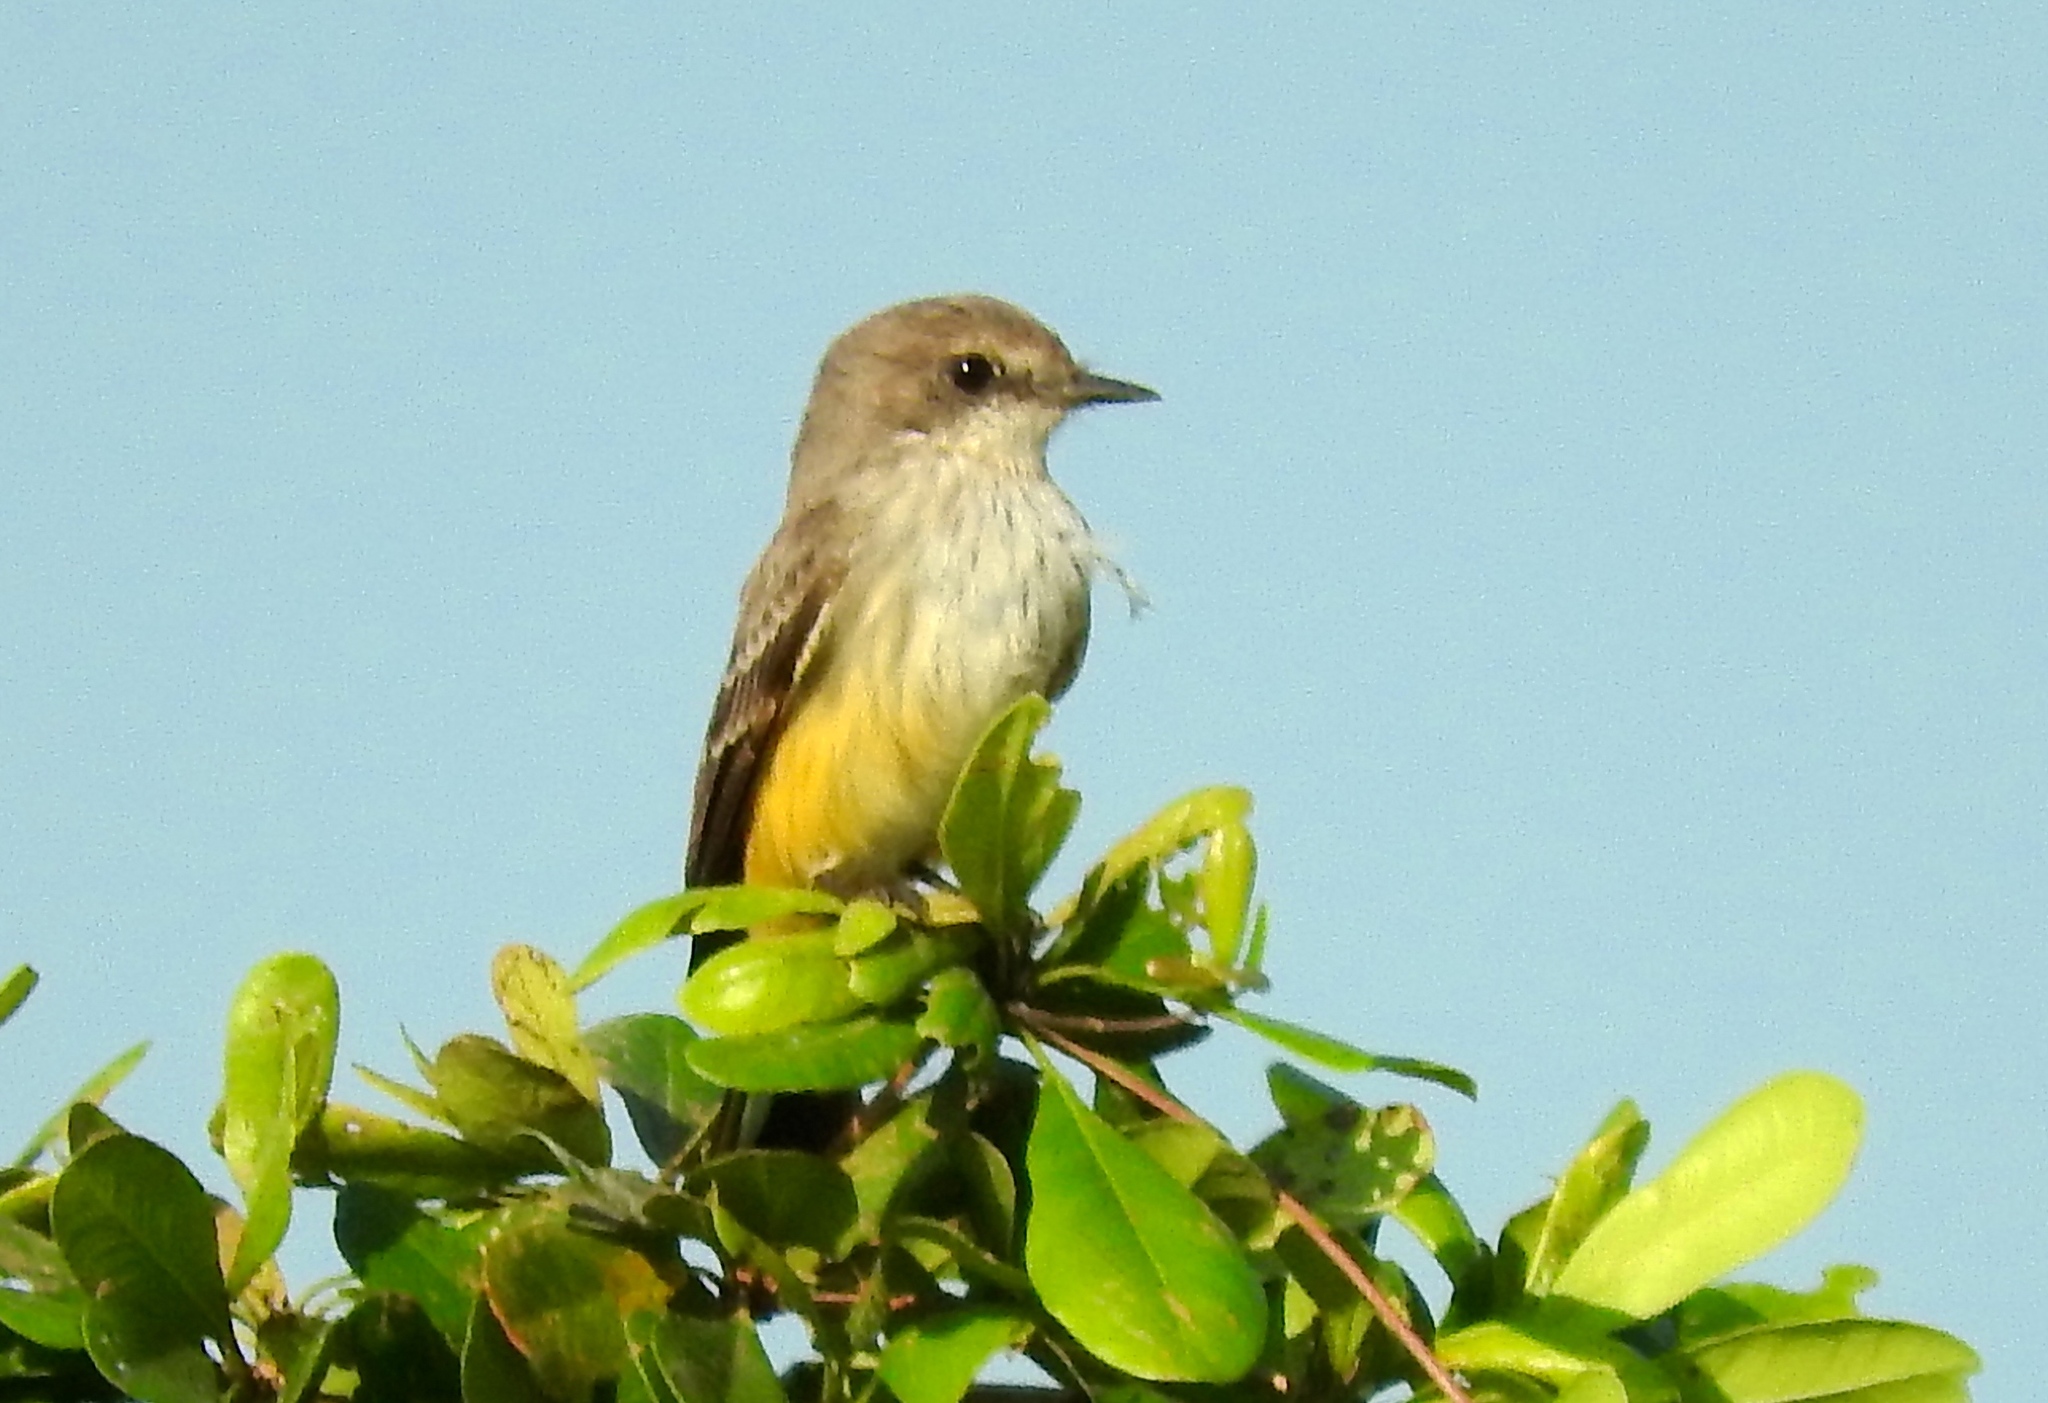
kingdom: Animalia
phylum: Chordata
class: Aves
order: Passeriformes
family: Tyrannidae
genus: Pyrocephalus
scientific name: Pyrocephalus rubinus
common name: Vermilion flycatcher
